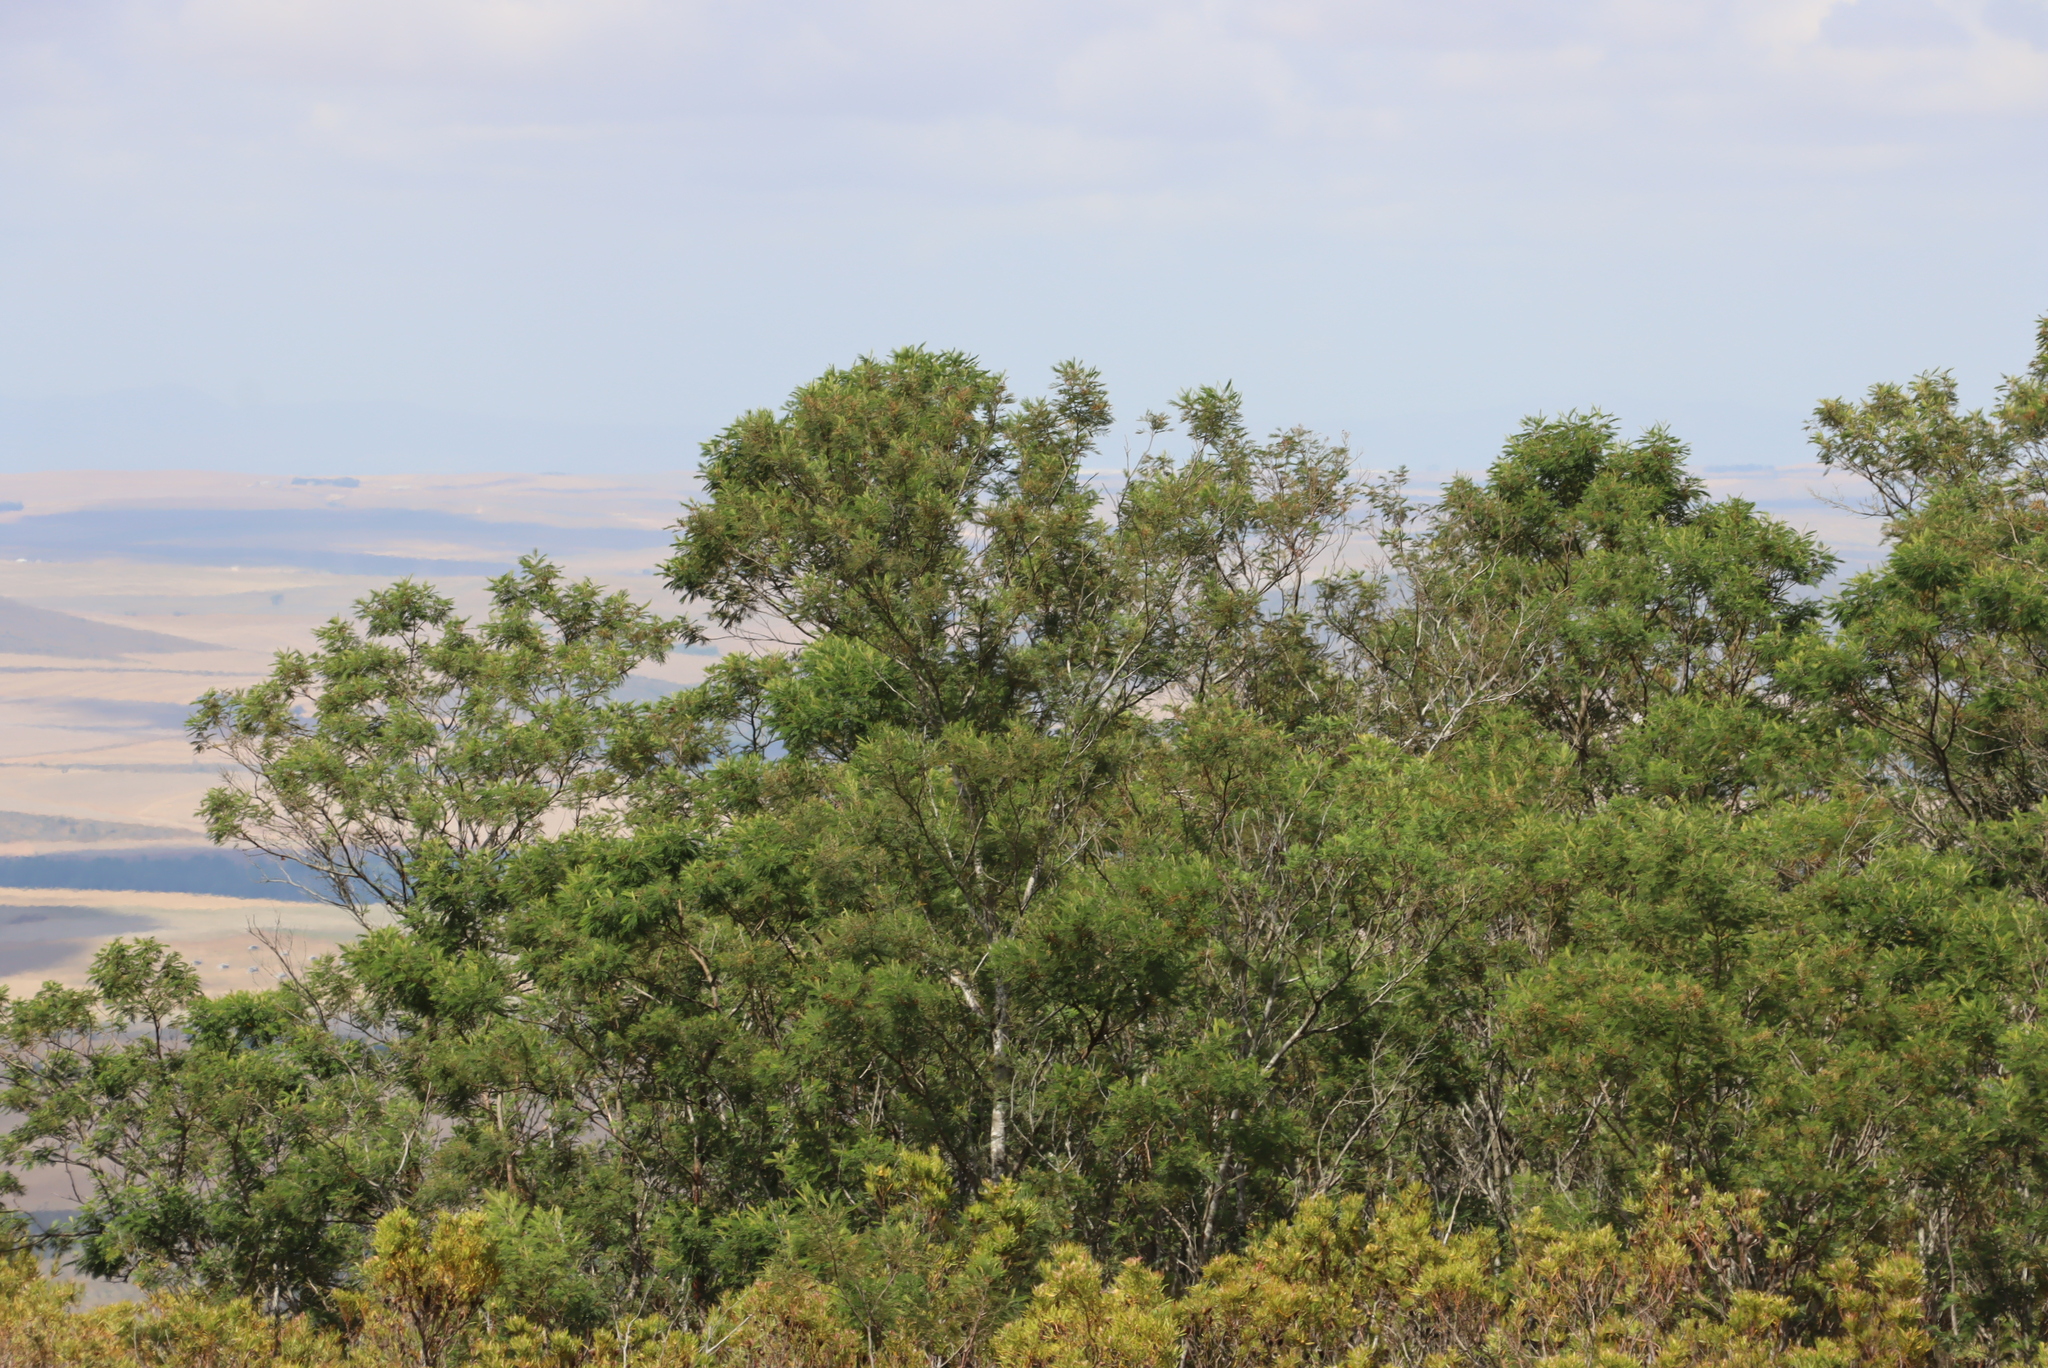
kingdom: Plantae
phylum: Tracheophyta
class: Magnoliopsida
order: Fabales
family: Fabaceae
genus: Acacia
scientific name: Acacia mearnsii
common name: Black wattle
